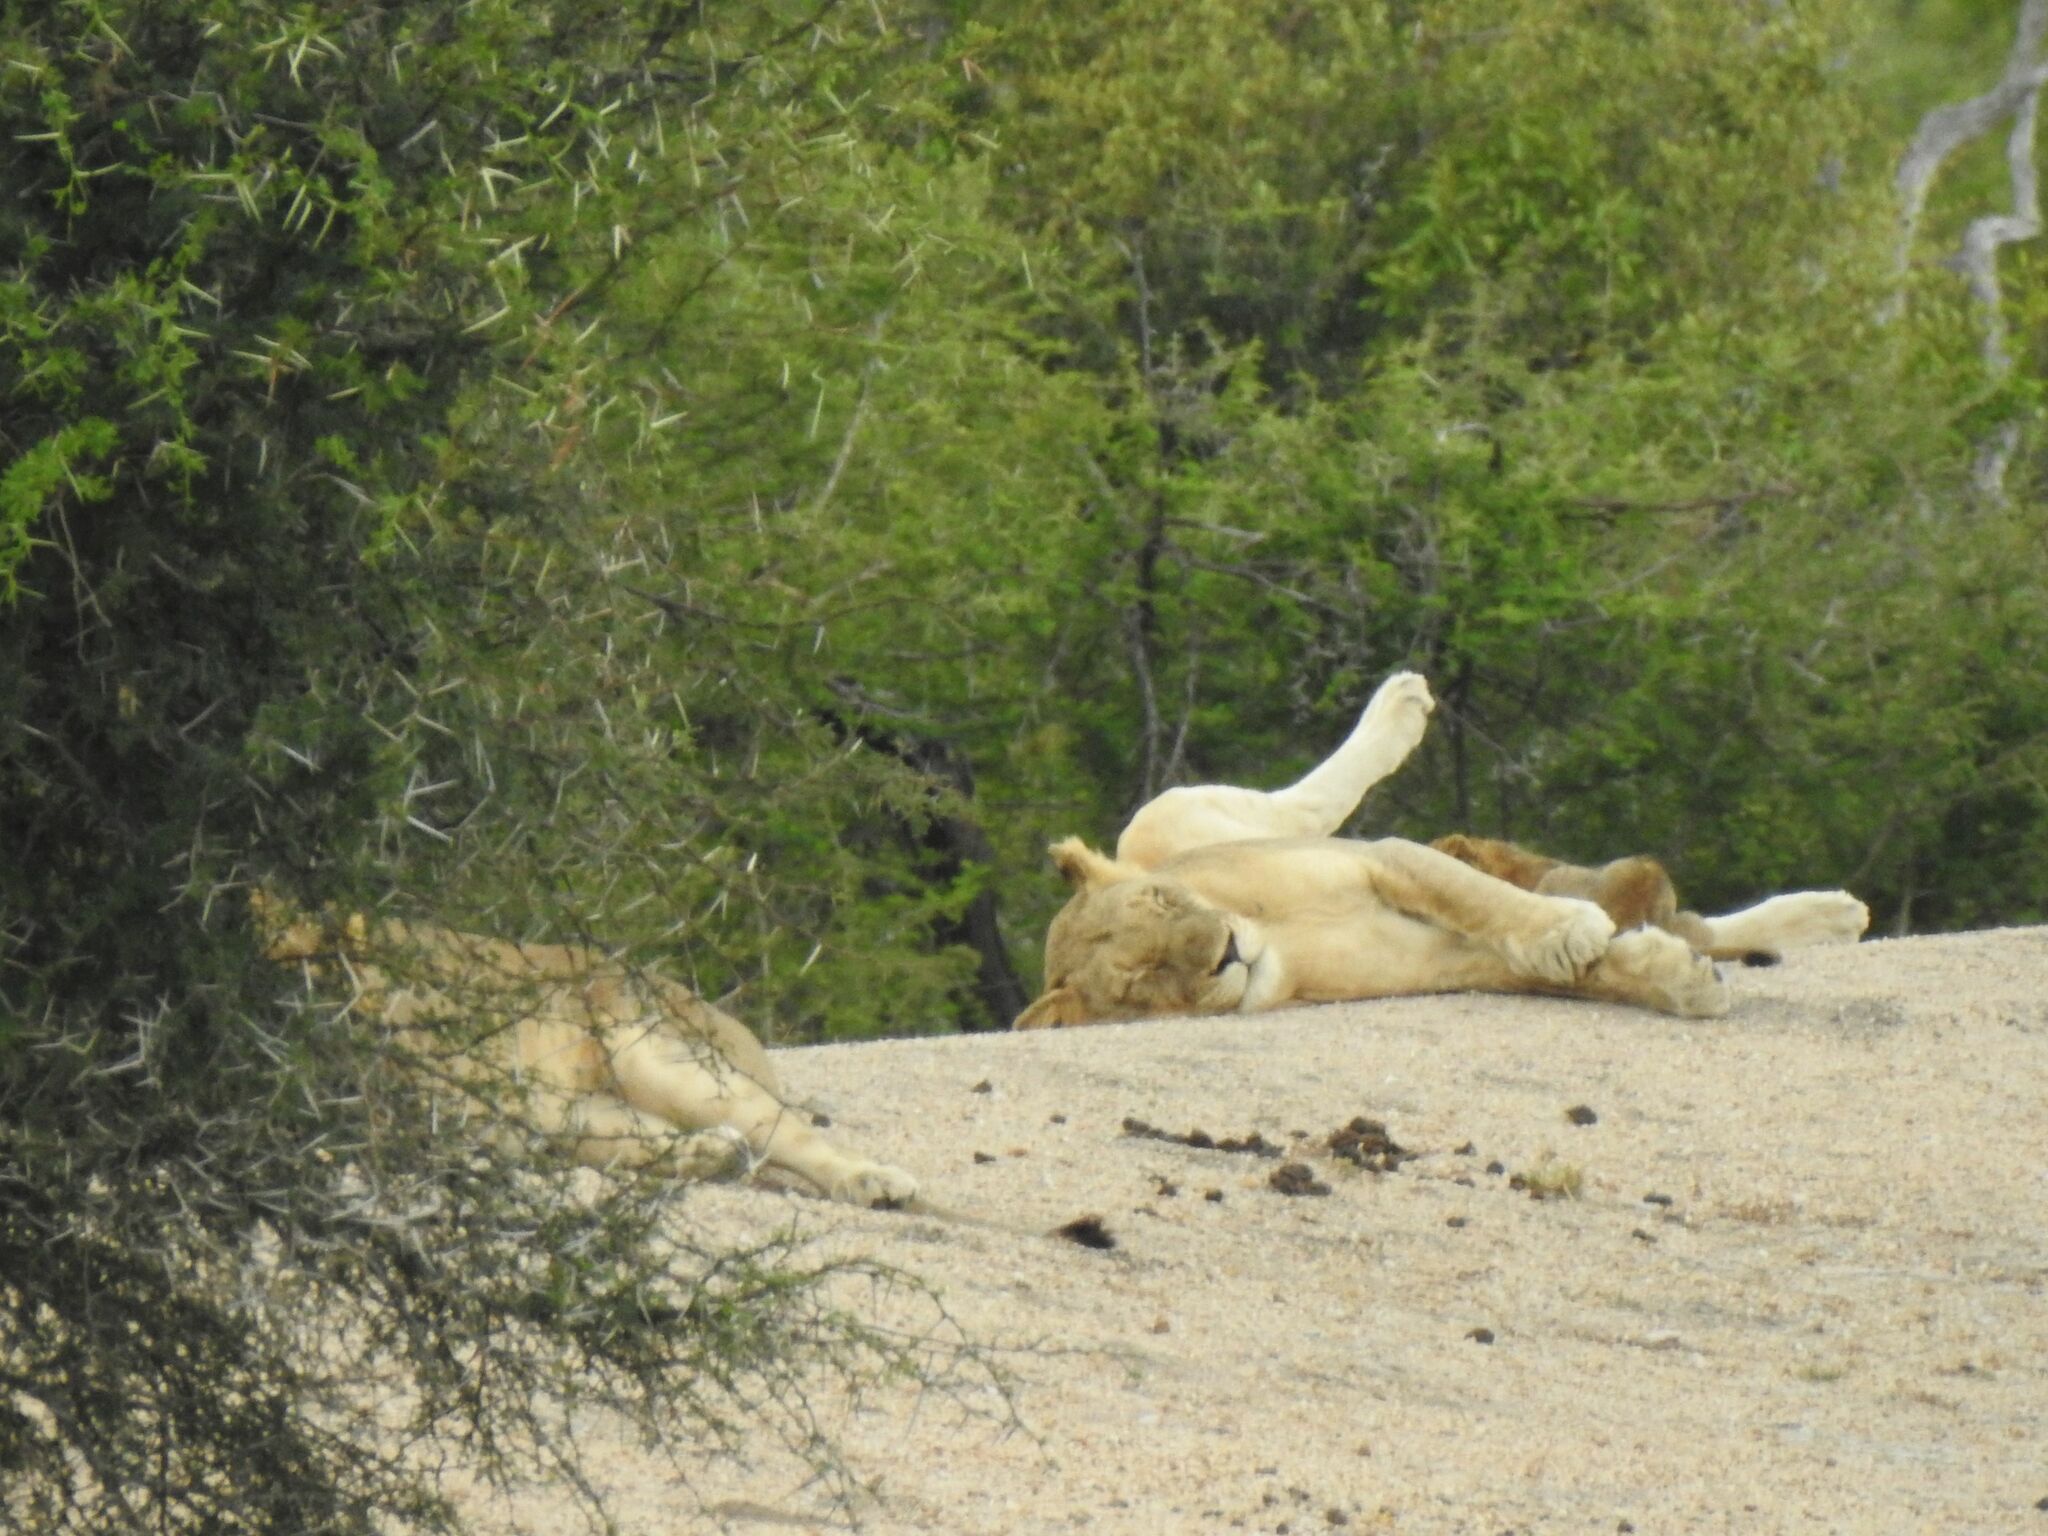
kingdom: Animalia
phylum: Chordata
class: Mammalia
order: Carnivora
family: Felidae
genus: Panthera
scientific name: Panthera leo
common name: Lion
